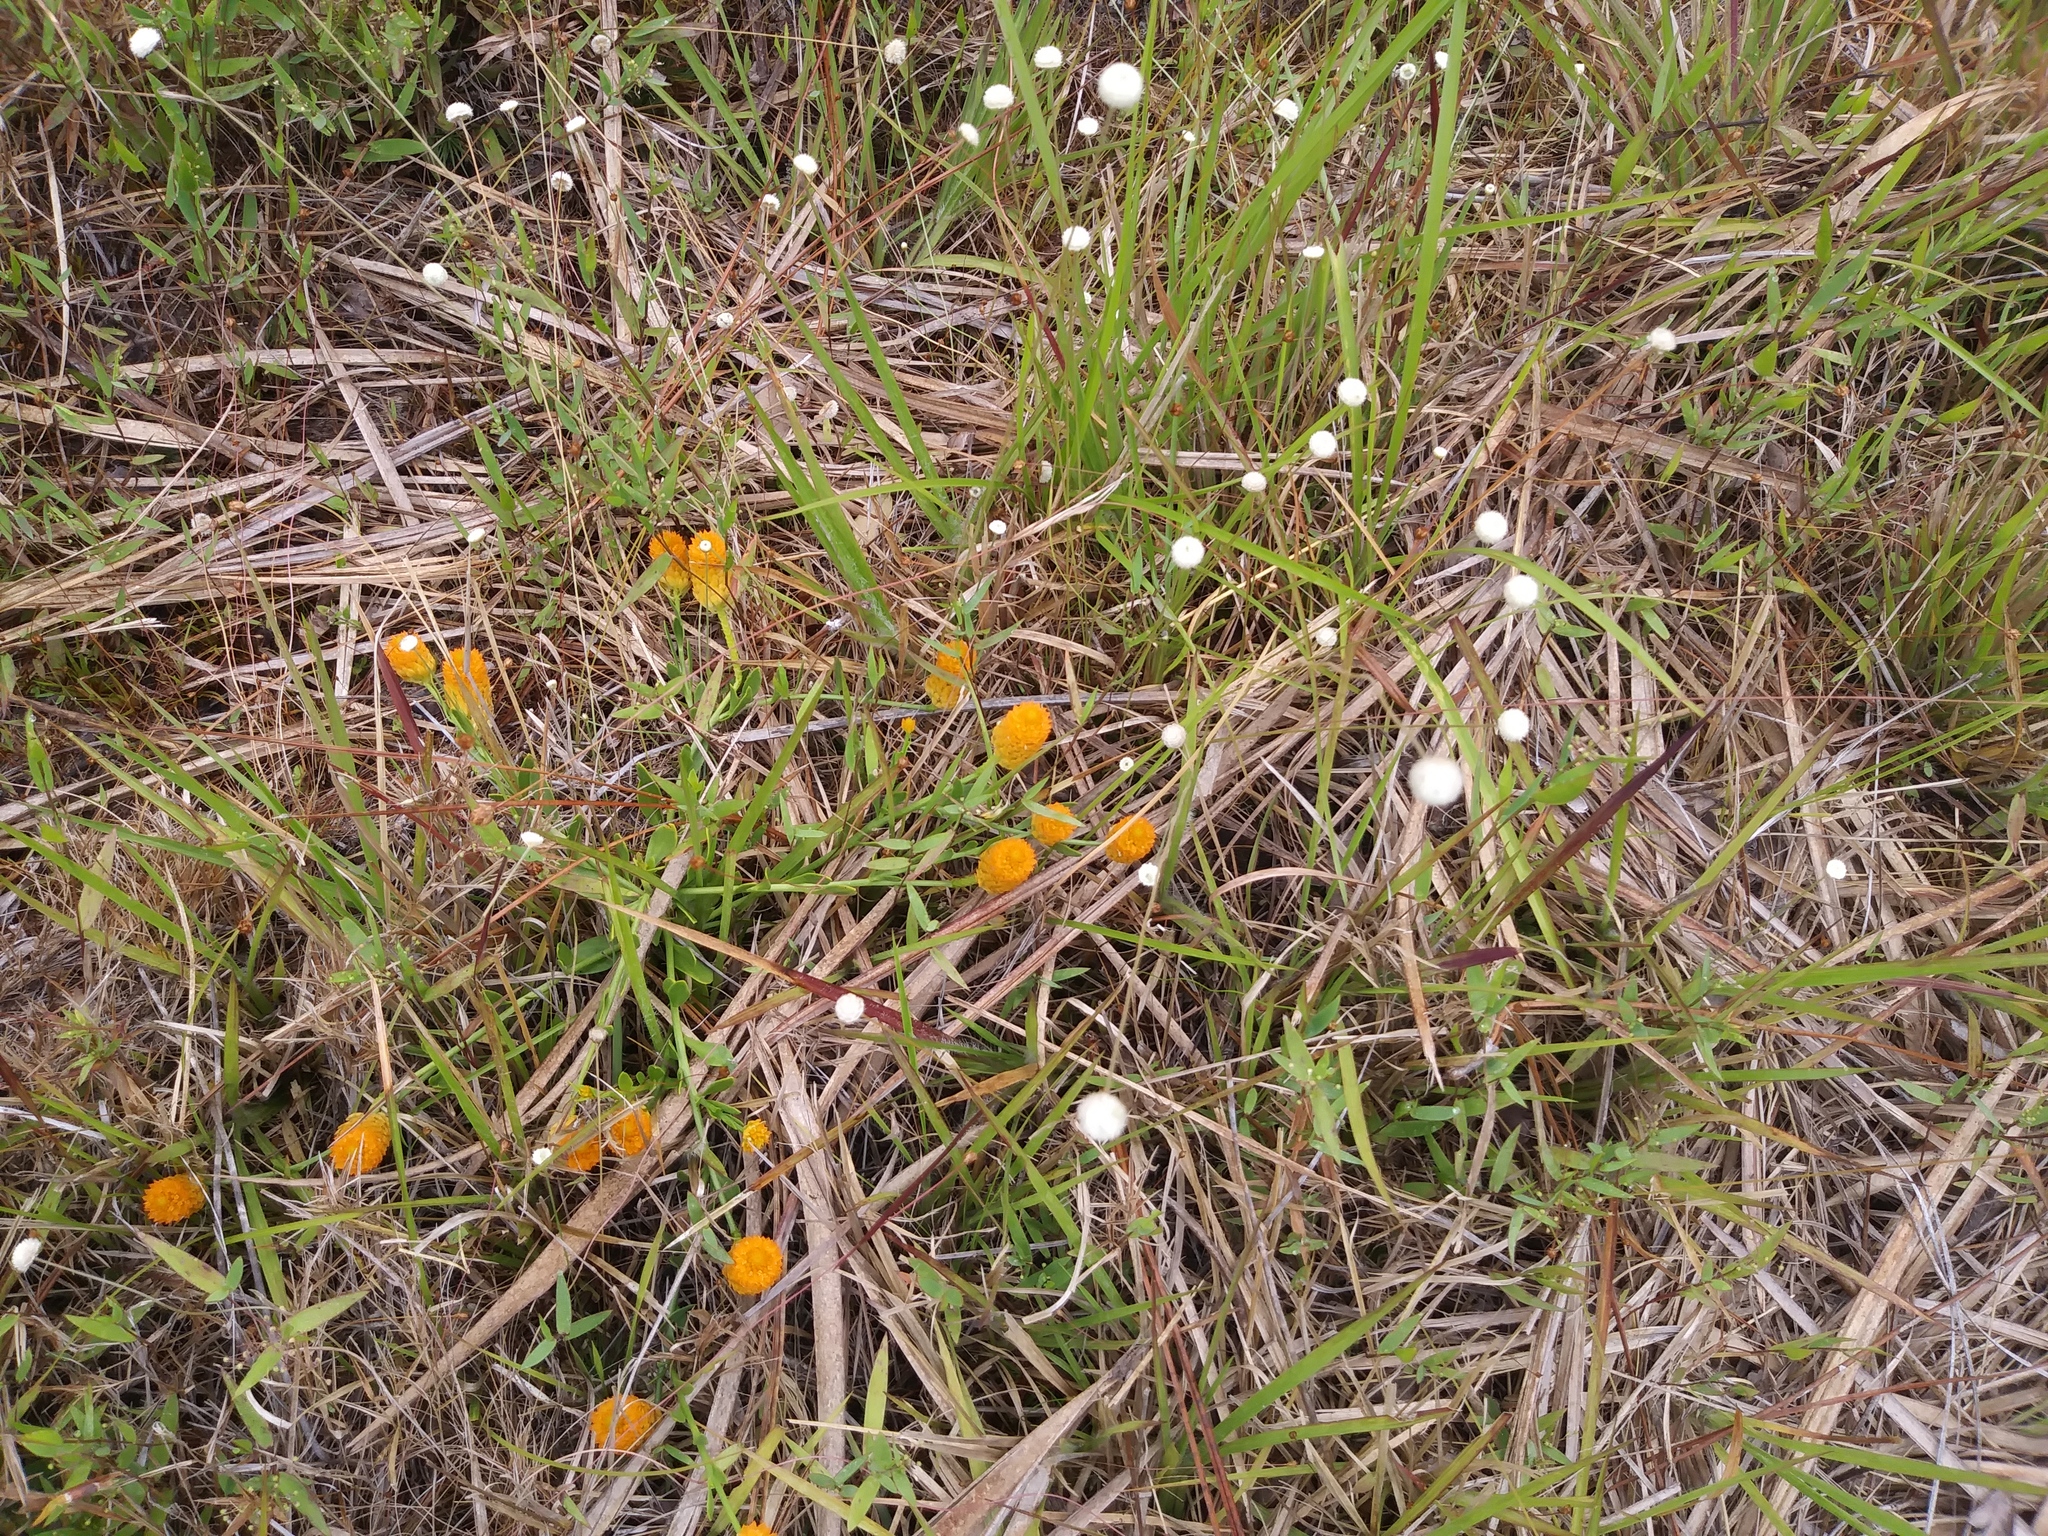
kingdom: Plantae
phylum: Tracheophyta
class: Magnoliopsida
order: Fabales
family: Polygalaceae
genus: Polygala
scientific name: Polygala lutea
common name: Orange milkwort
